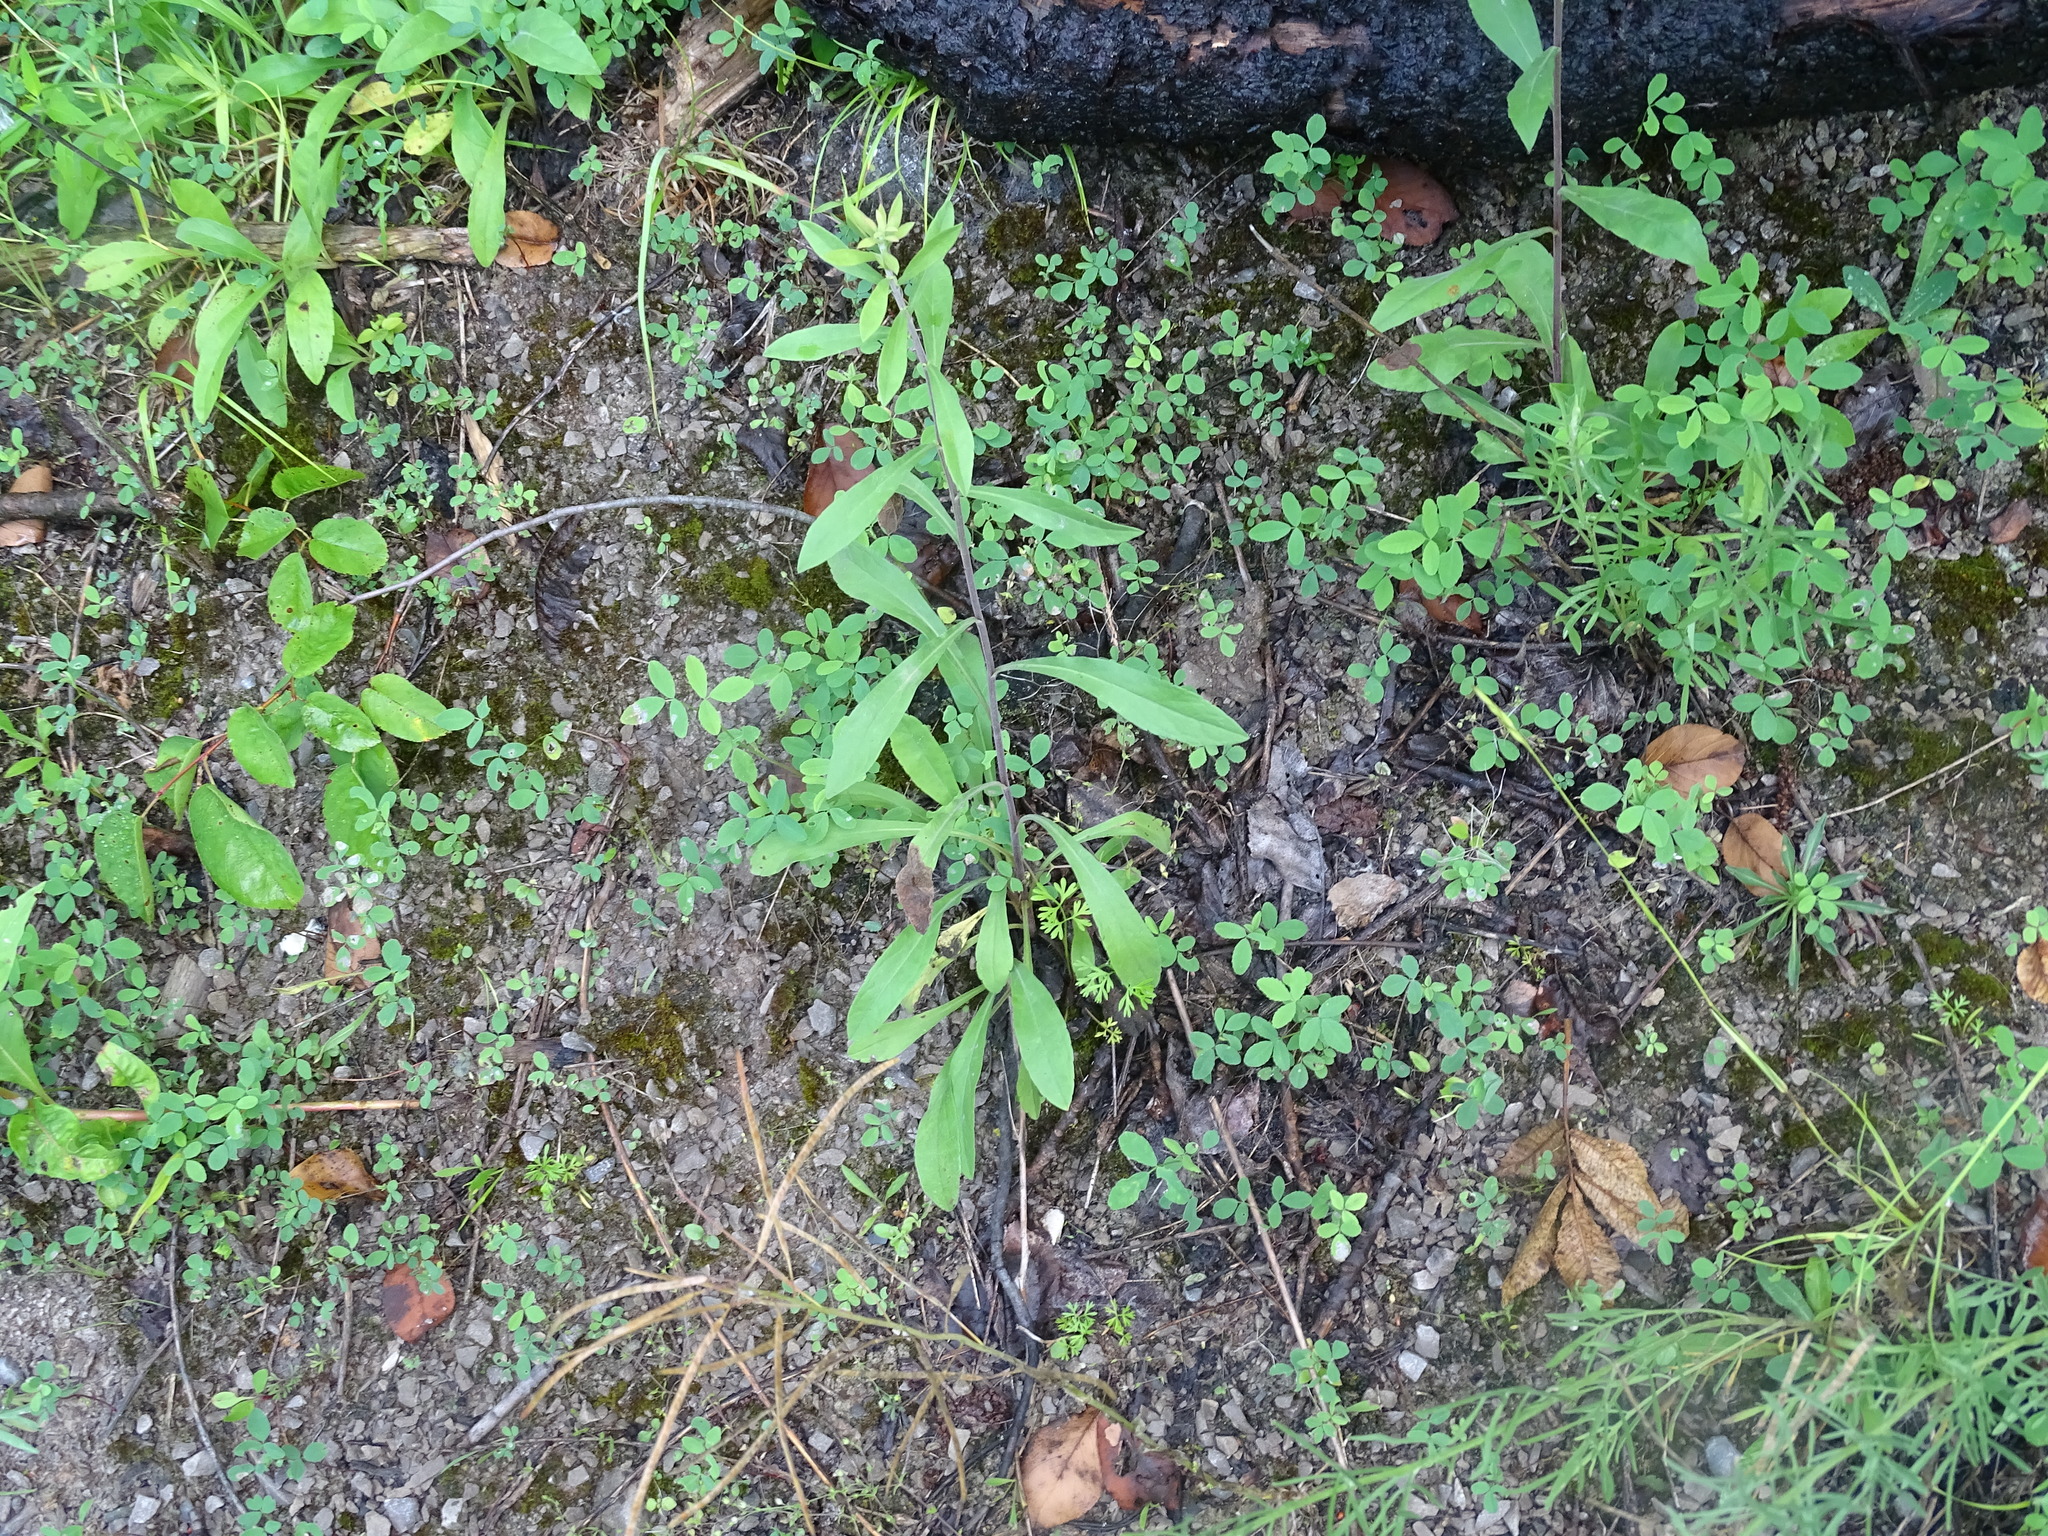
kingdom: Plantae
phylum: Tracheophyta
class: Magnoliopsida
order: Asterales
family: Asteraceae
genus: Solidago
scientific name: Solidago nemoralis
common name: Grey goldenrod
